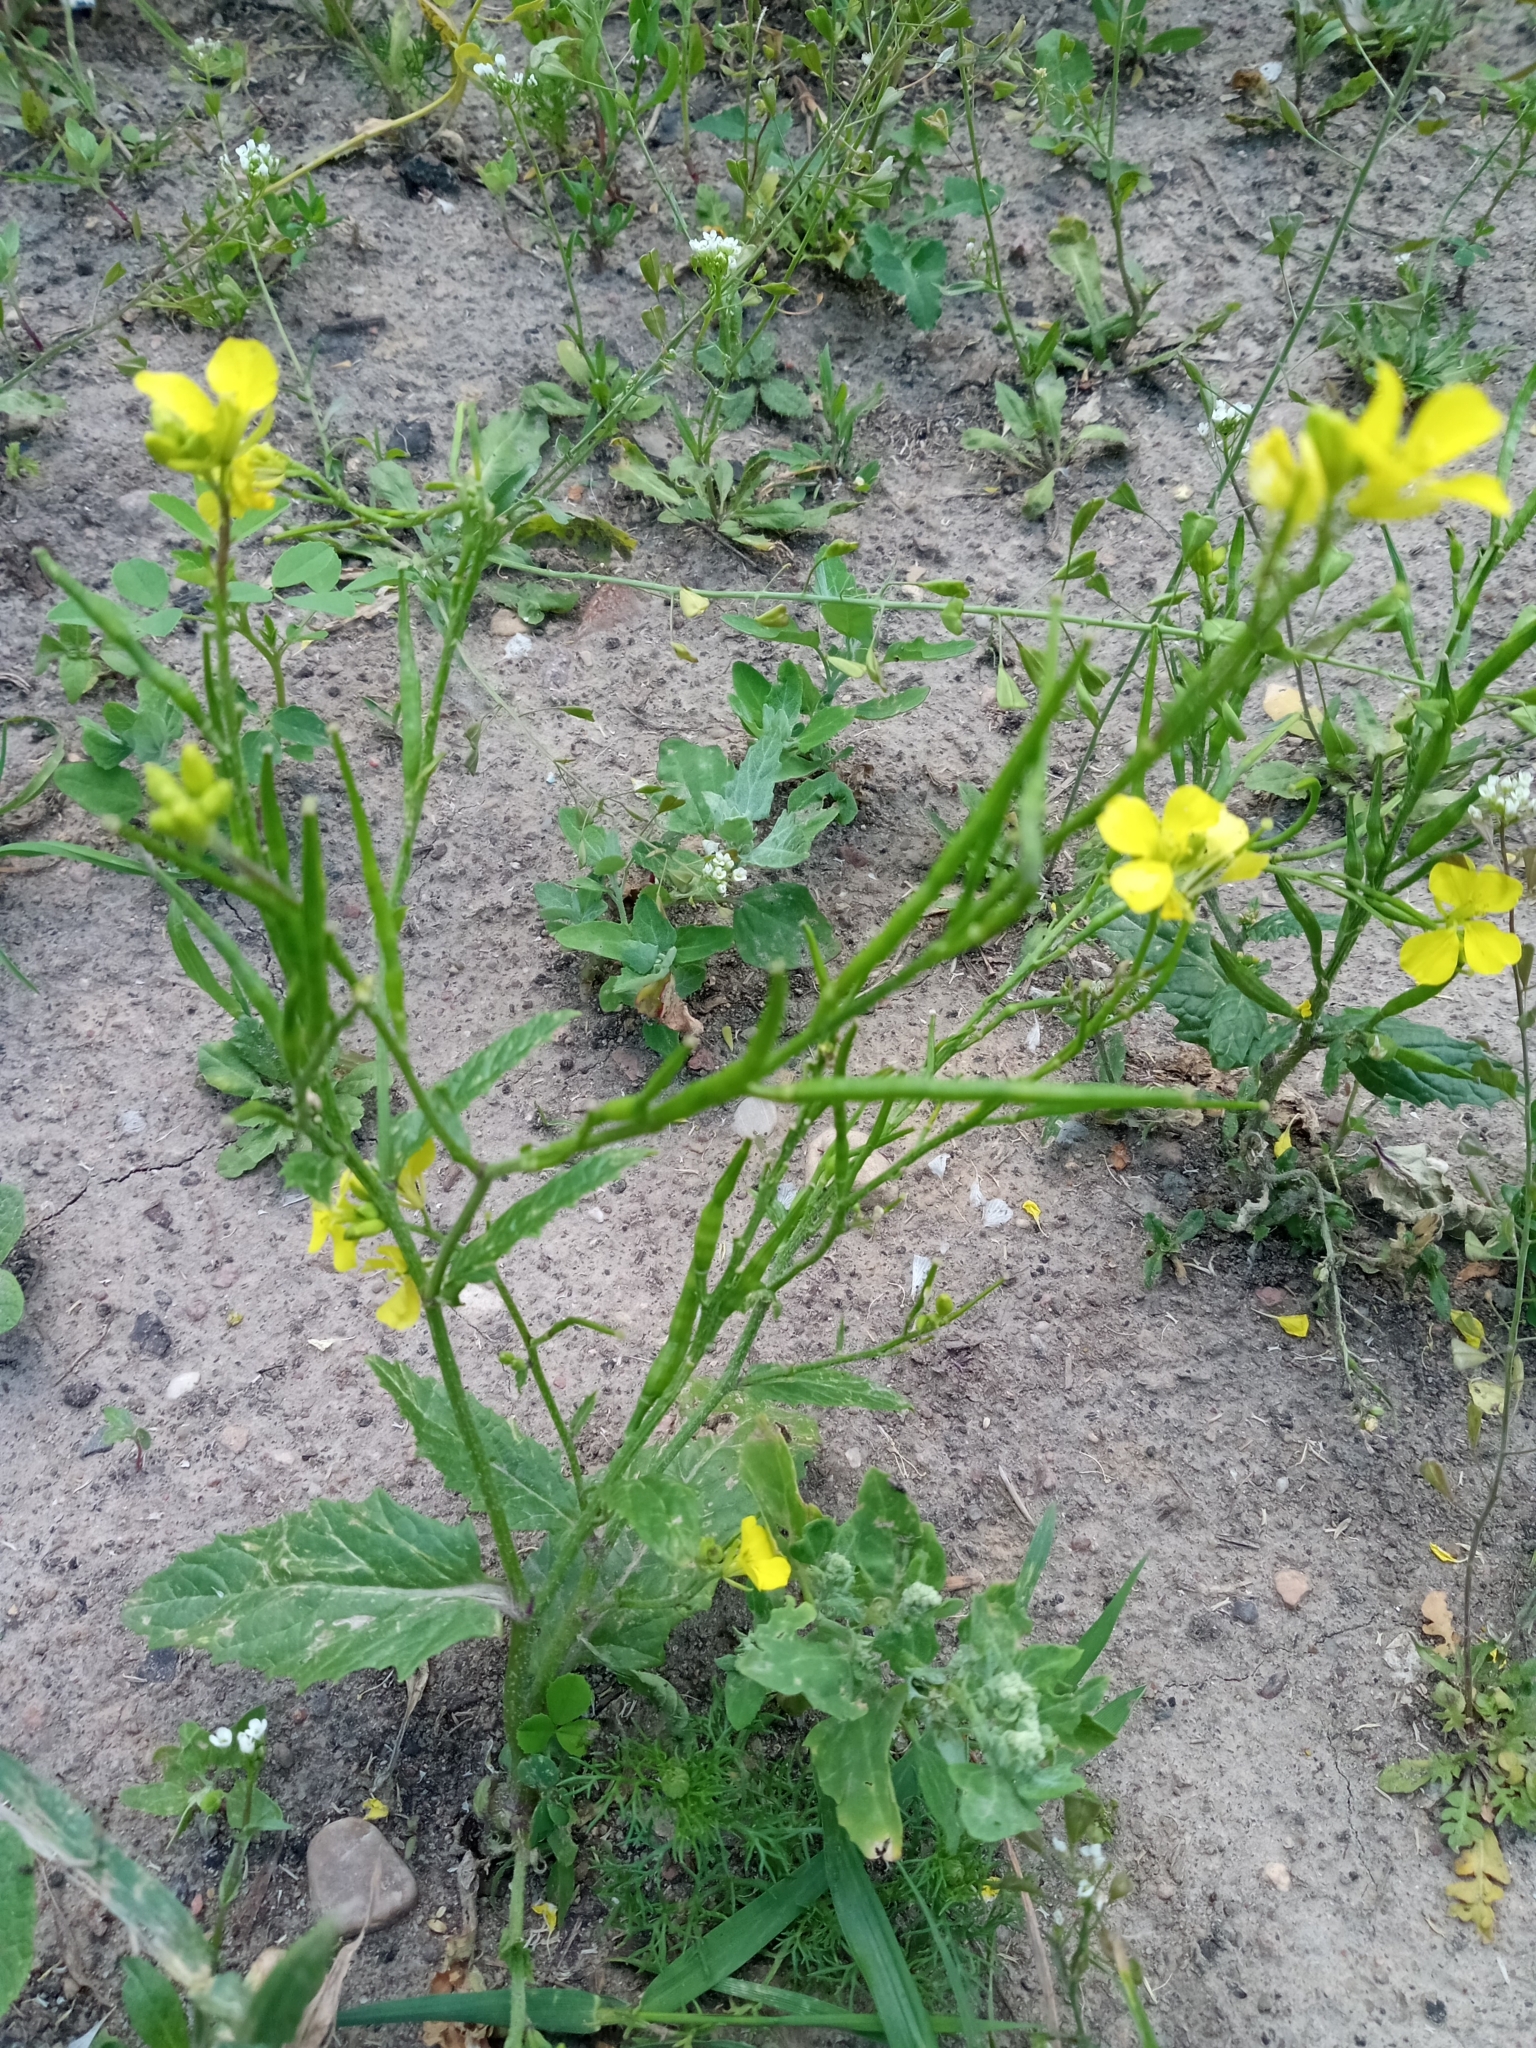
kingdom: Plantae
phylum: Tracheophyta
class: Magnoliopsida
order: Brassicales
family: Brassicaceae
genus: Sinapis
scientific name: Sinapis arvensis
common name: Charlock
